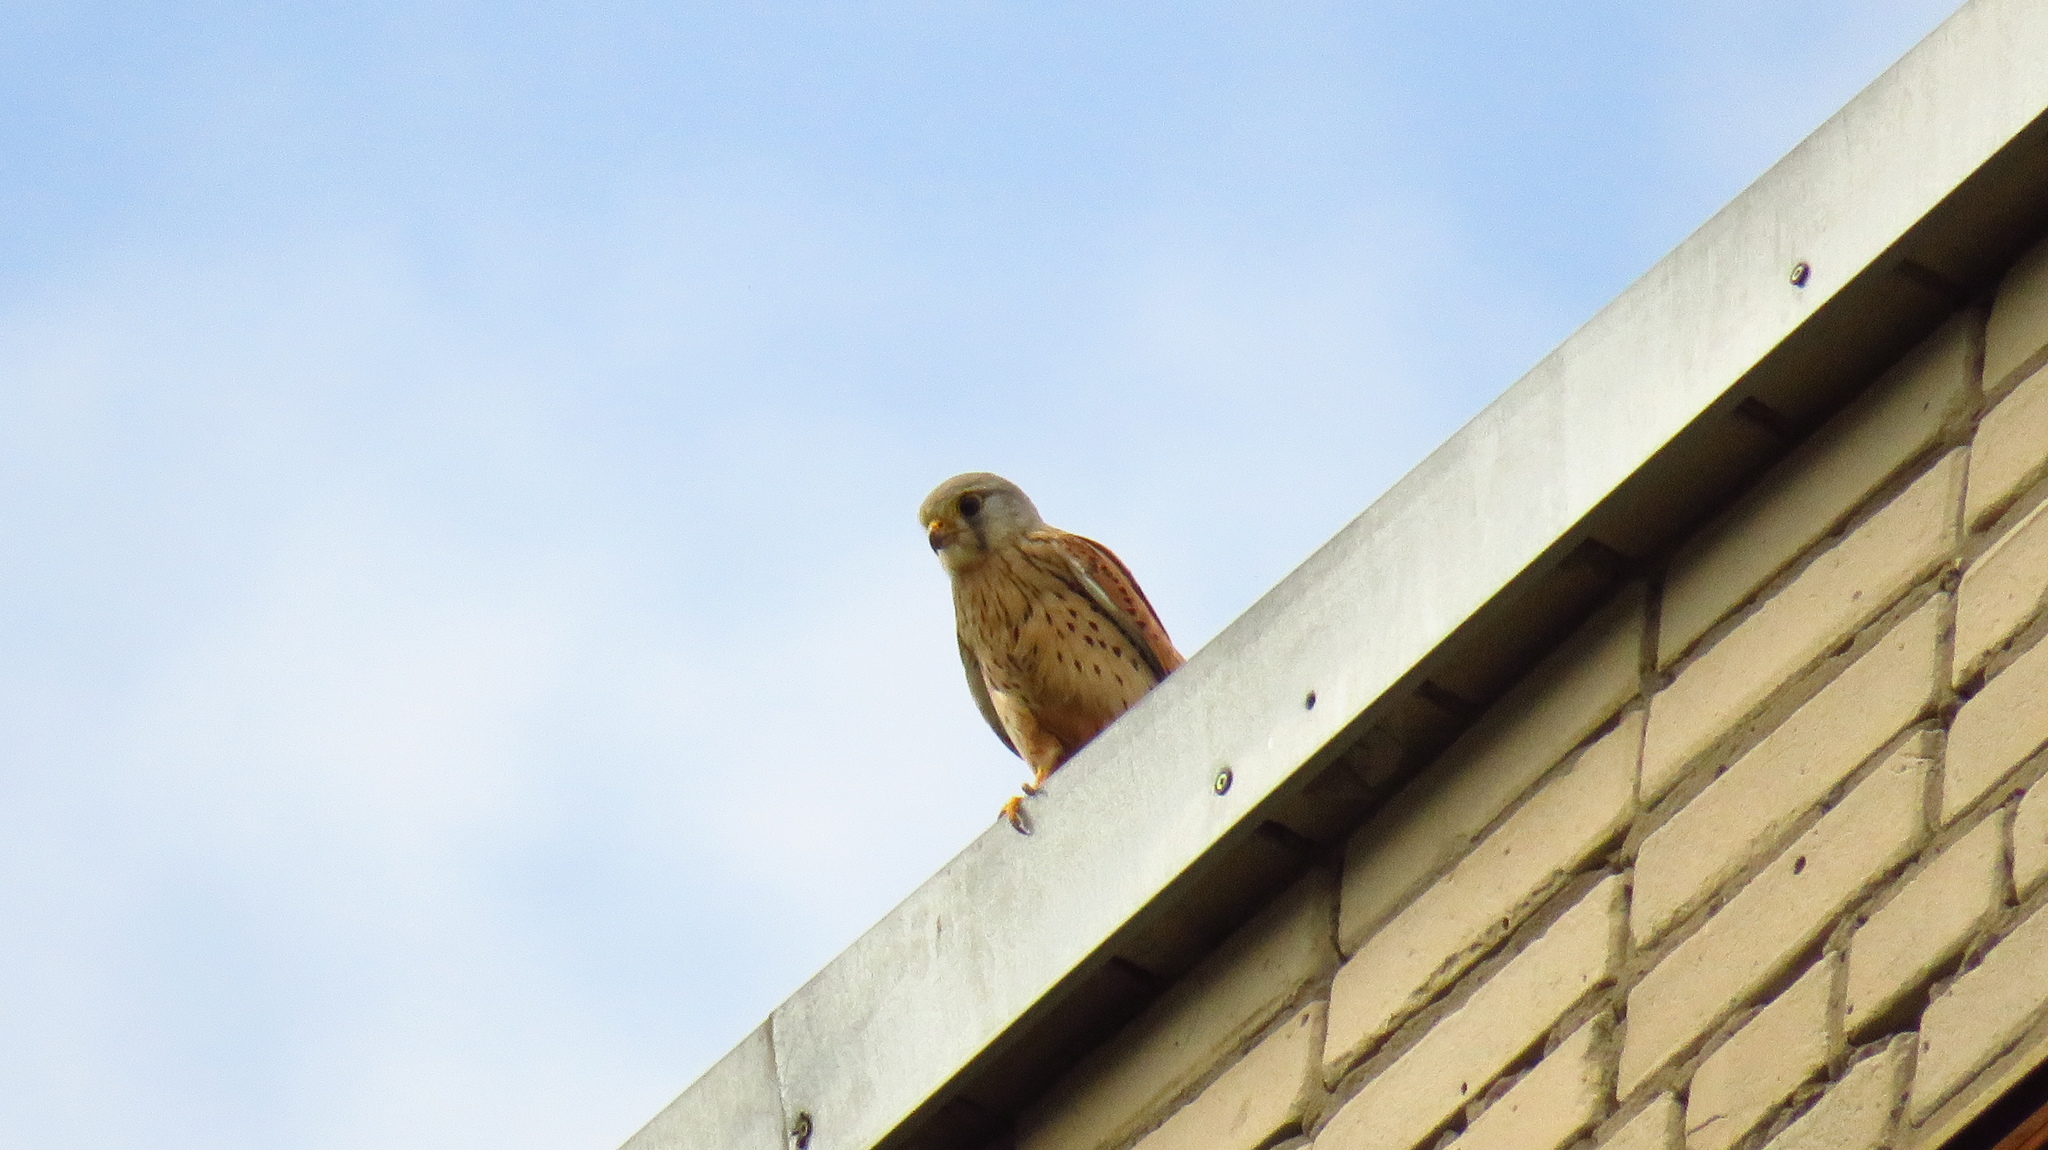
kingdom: Animalia
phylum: Chordata
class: Aves
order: Falconiformes
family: Falconidae
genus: Falco
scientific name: Falco tinnunculus
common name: Common kestrel
